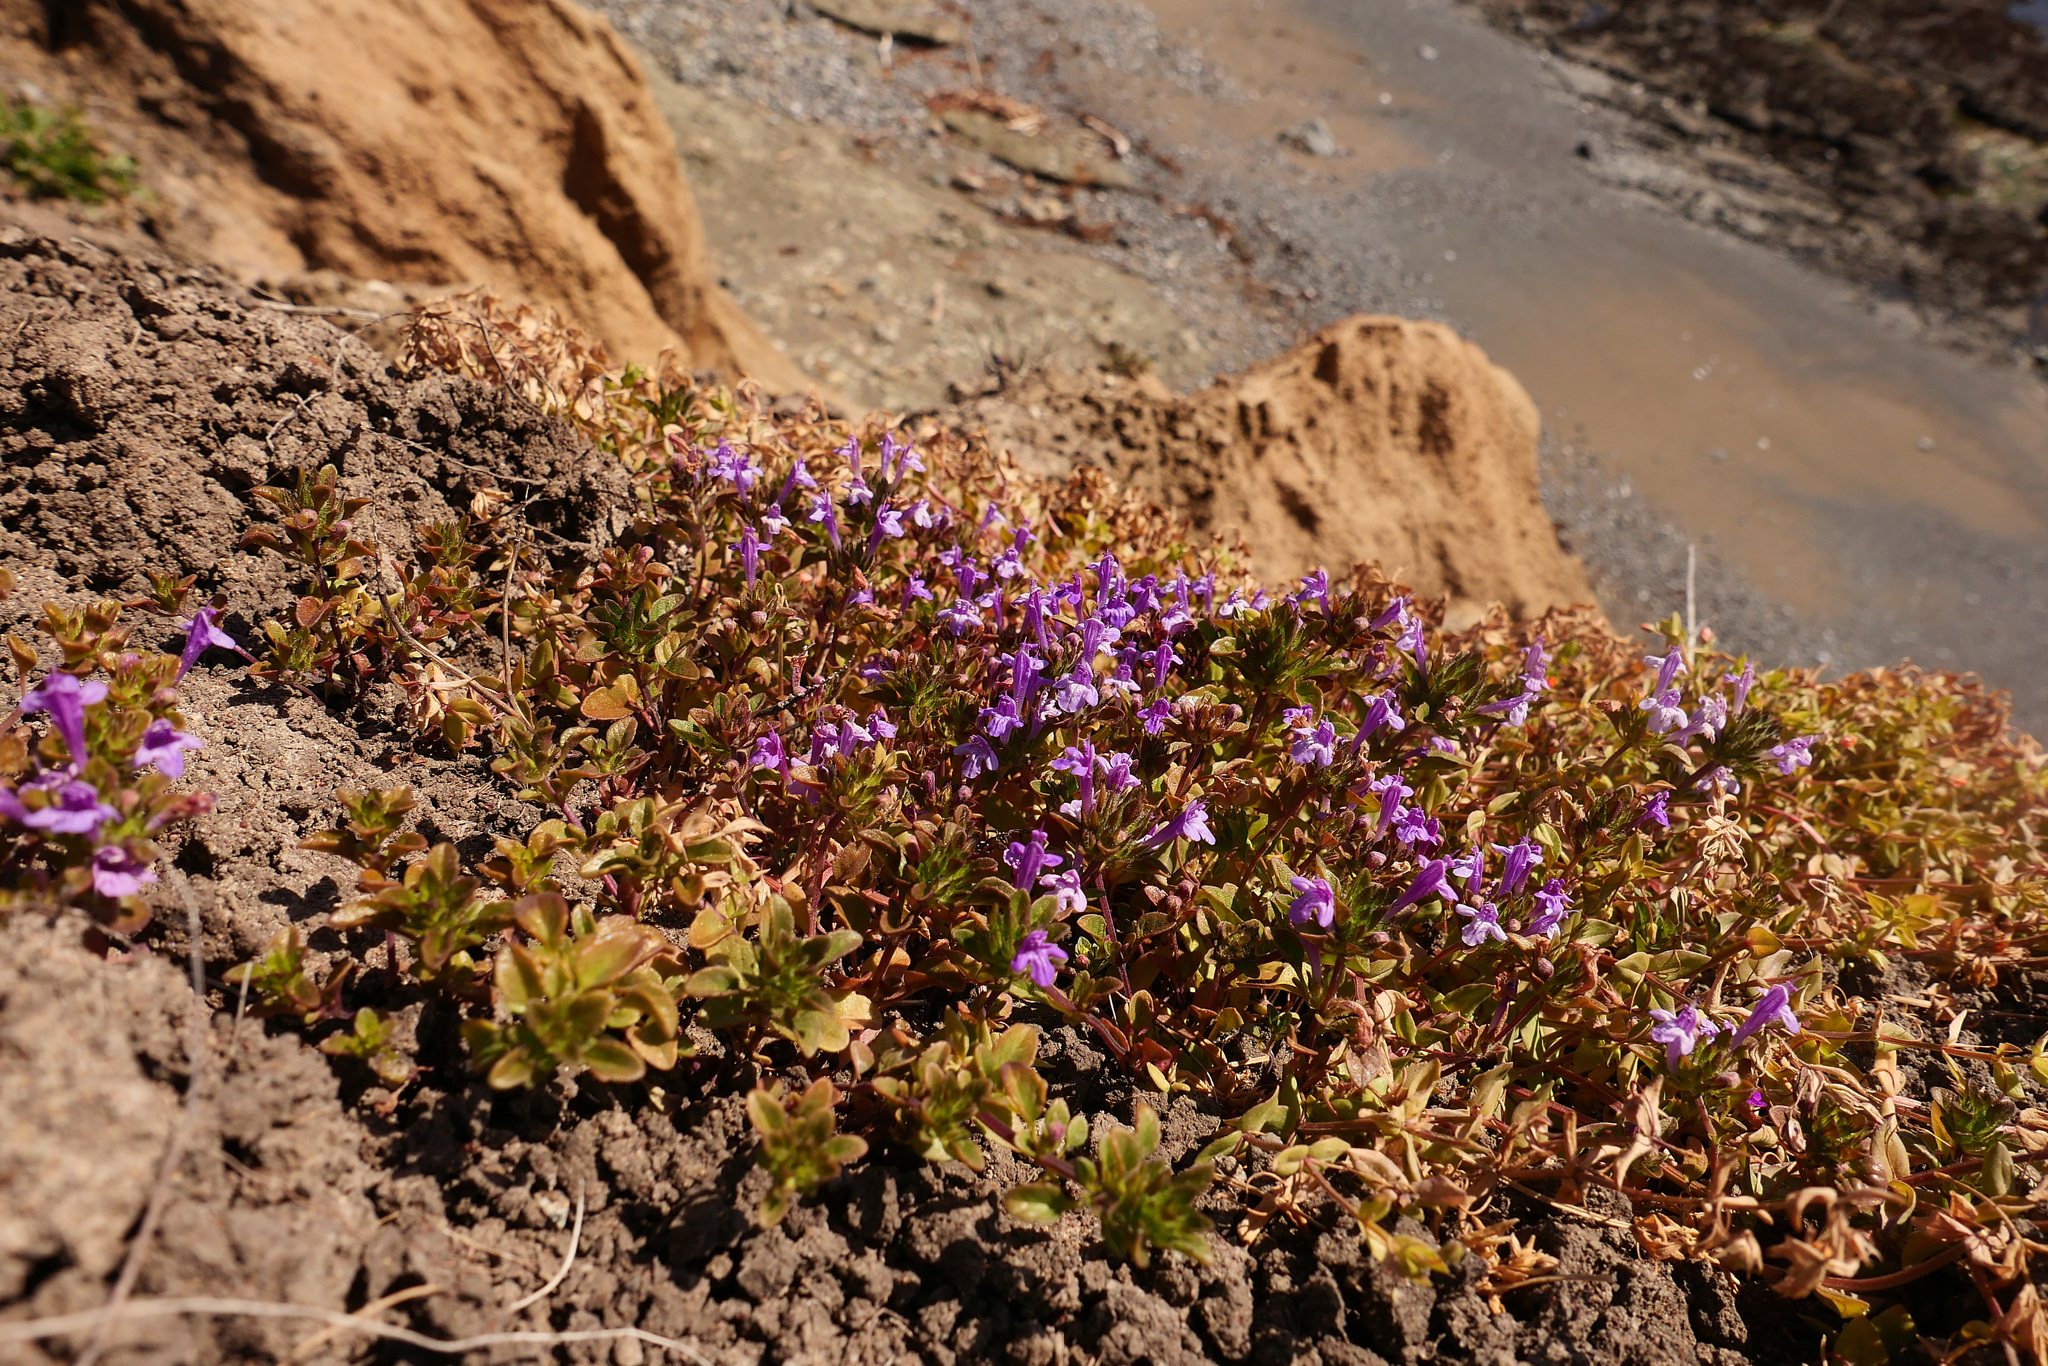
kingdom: Plantae
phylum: Tracheophyta
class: Magnoliopsida
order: Lamiales
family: Lamiaceae
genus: Pogogyne
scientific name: Pogogyne douglasii
